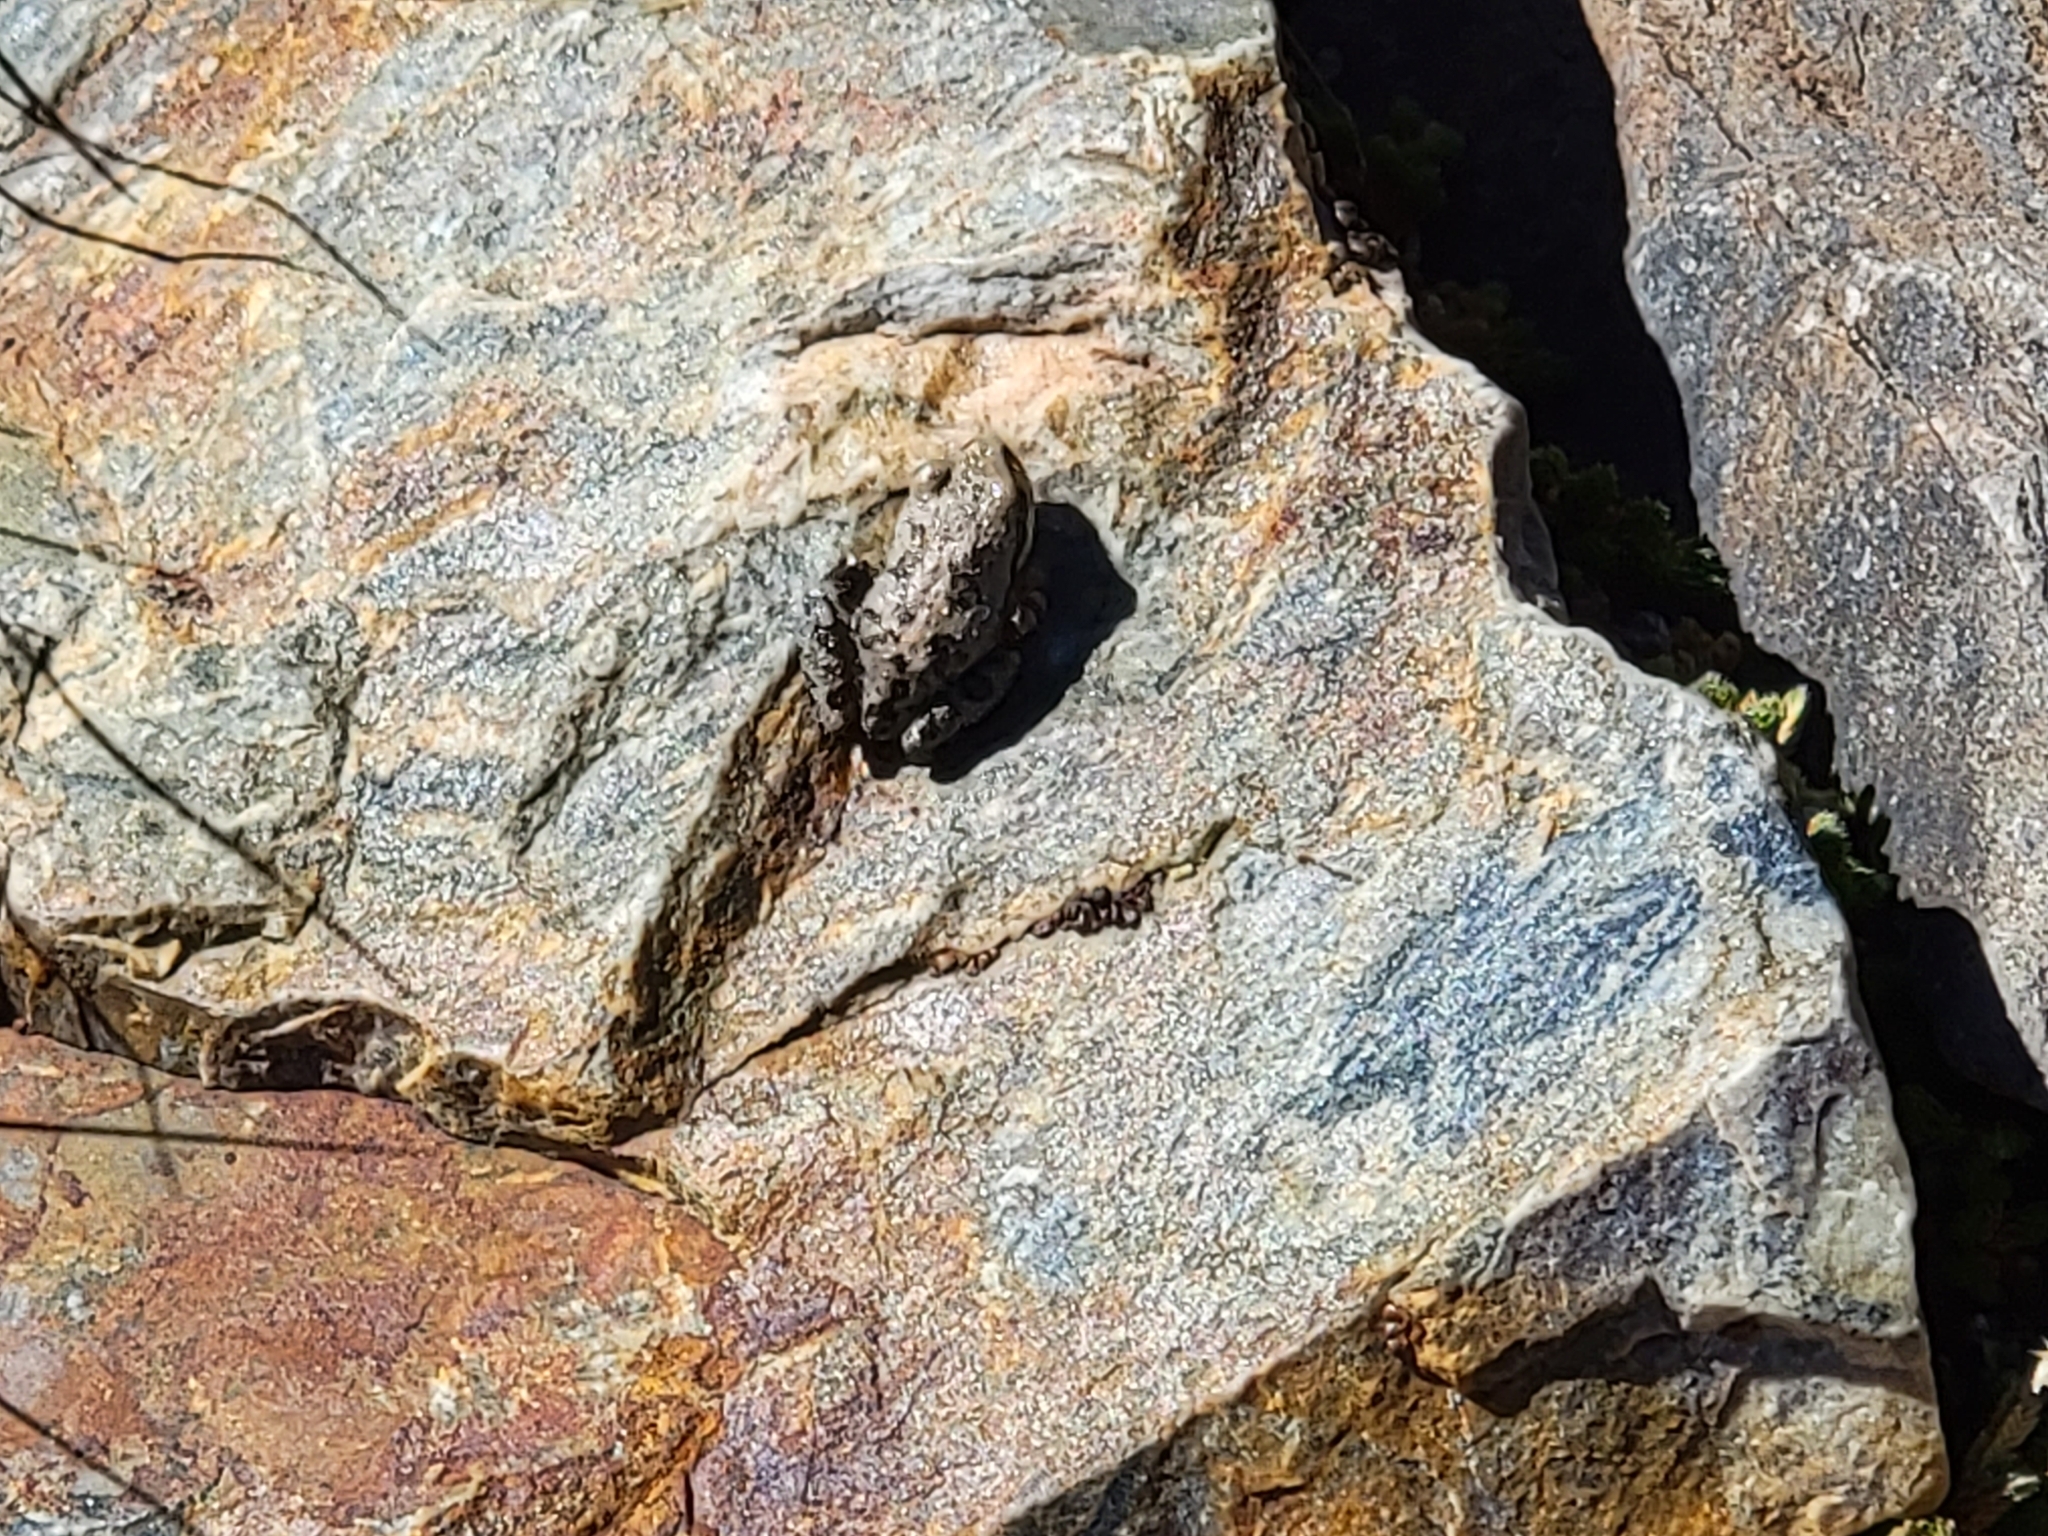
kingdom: Animalia
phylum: Chordata
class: Amphibia
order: Anura
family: Hylidae
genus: Pseudacris
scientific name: Pseudacris regilla
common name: Pacific chorus frog
